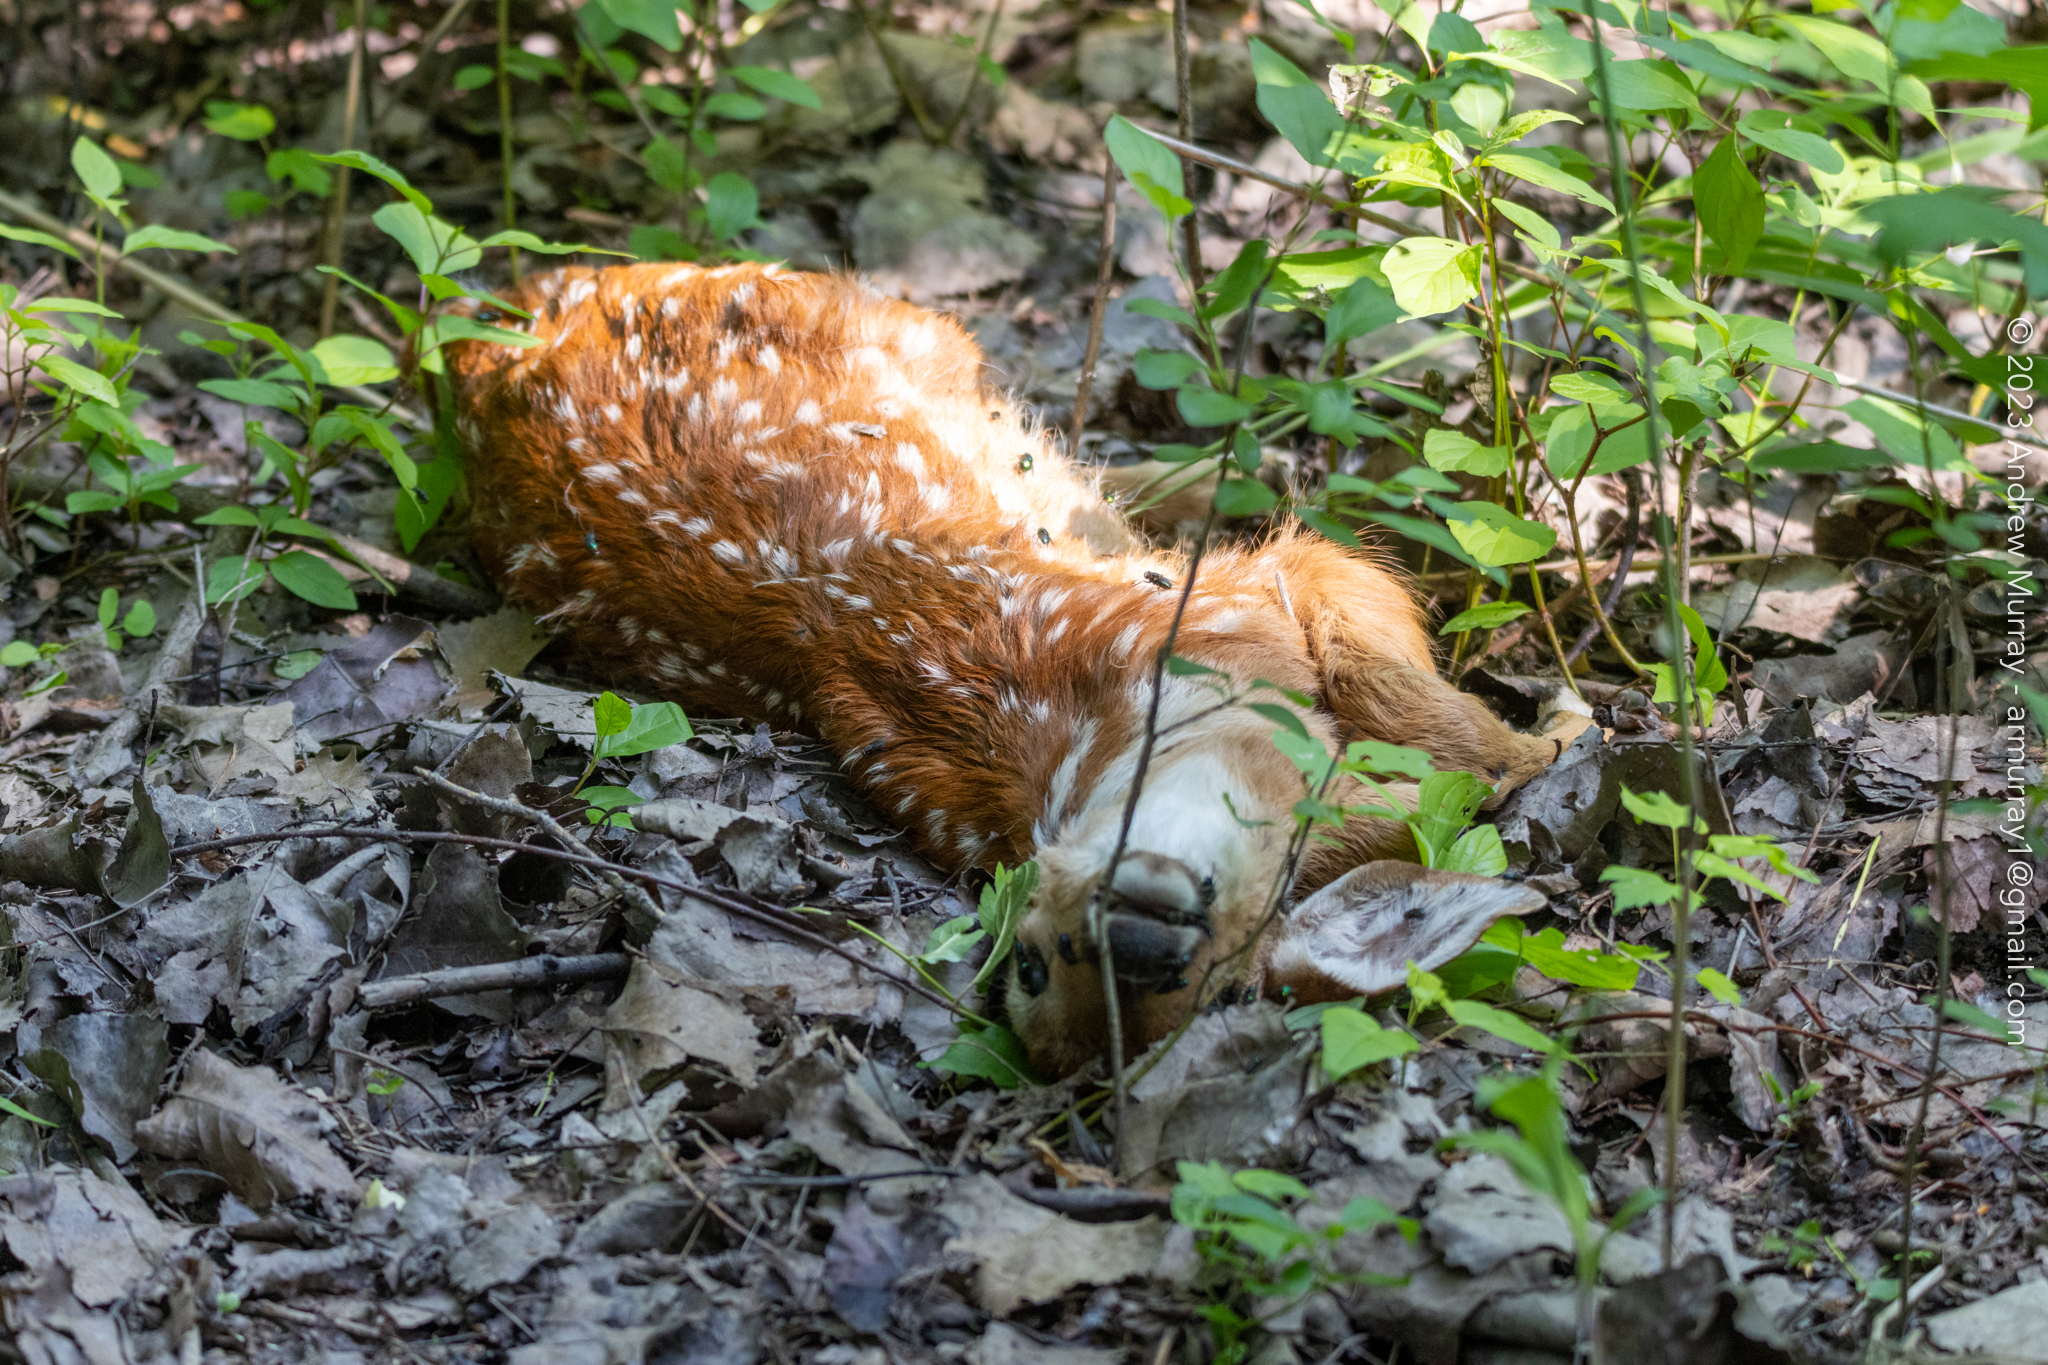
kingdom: Animalia
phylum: Chordata
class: Mammalia
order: Artiodactyla
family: Cervidae
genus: Odocoileus
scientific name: Odocoileus virginianus
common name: White-tailed deer
